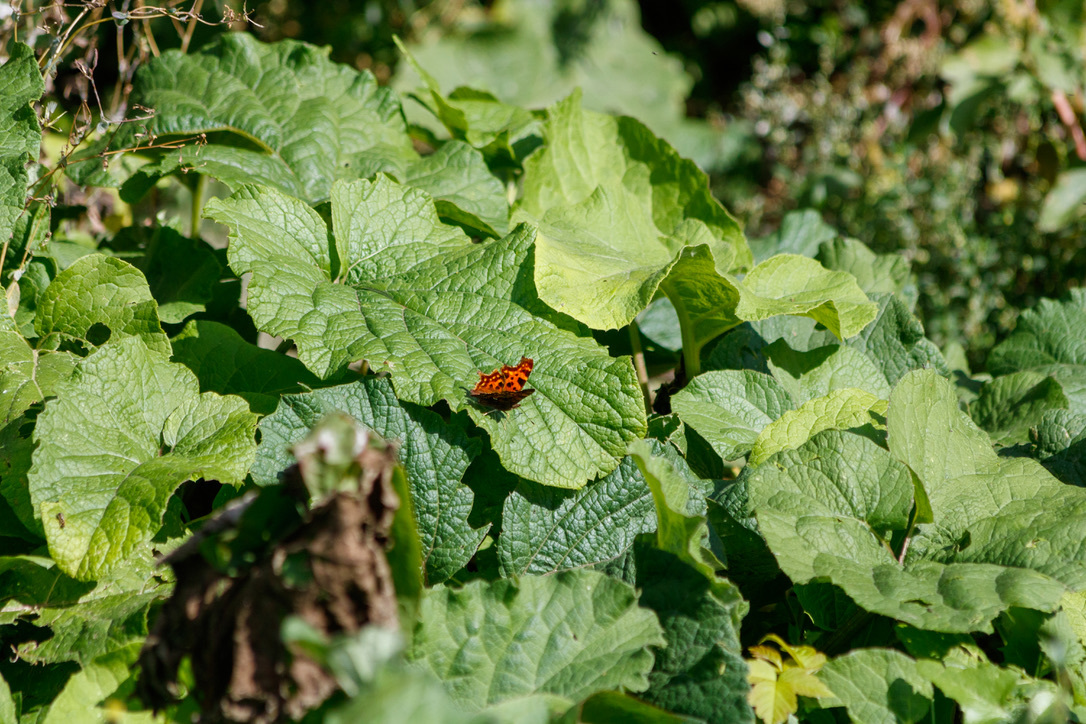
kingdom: Animalia
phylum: Arthropoda
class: Insecta
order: Lepidoptera
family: Nymphalidae
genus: Polygonia
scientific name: Polygonia c-album
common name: Comma
